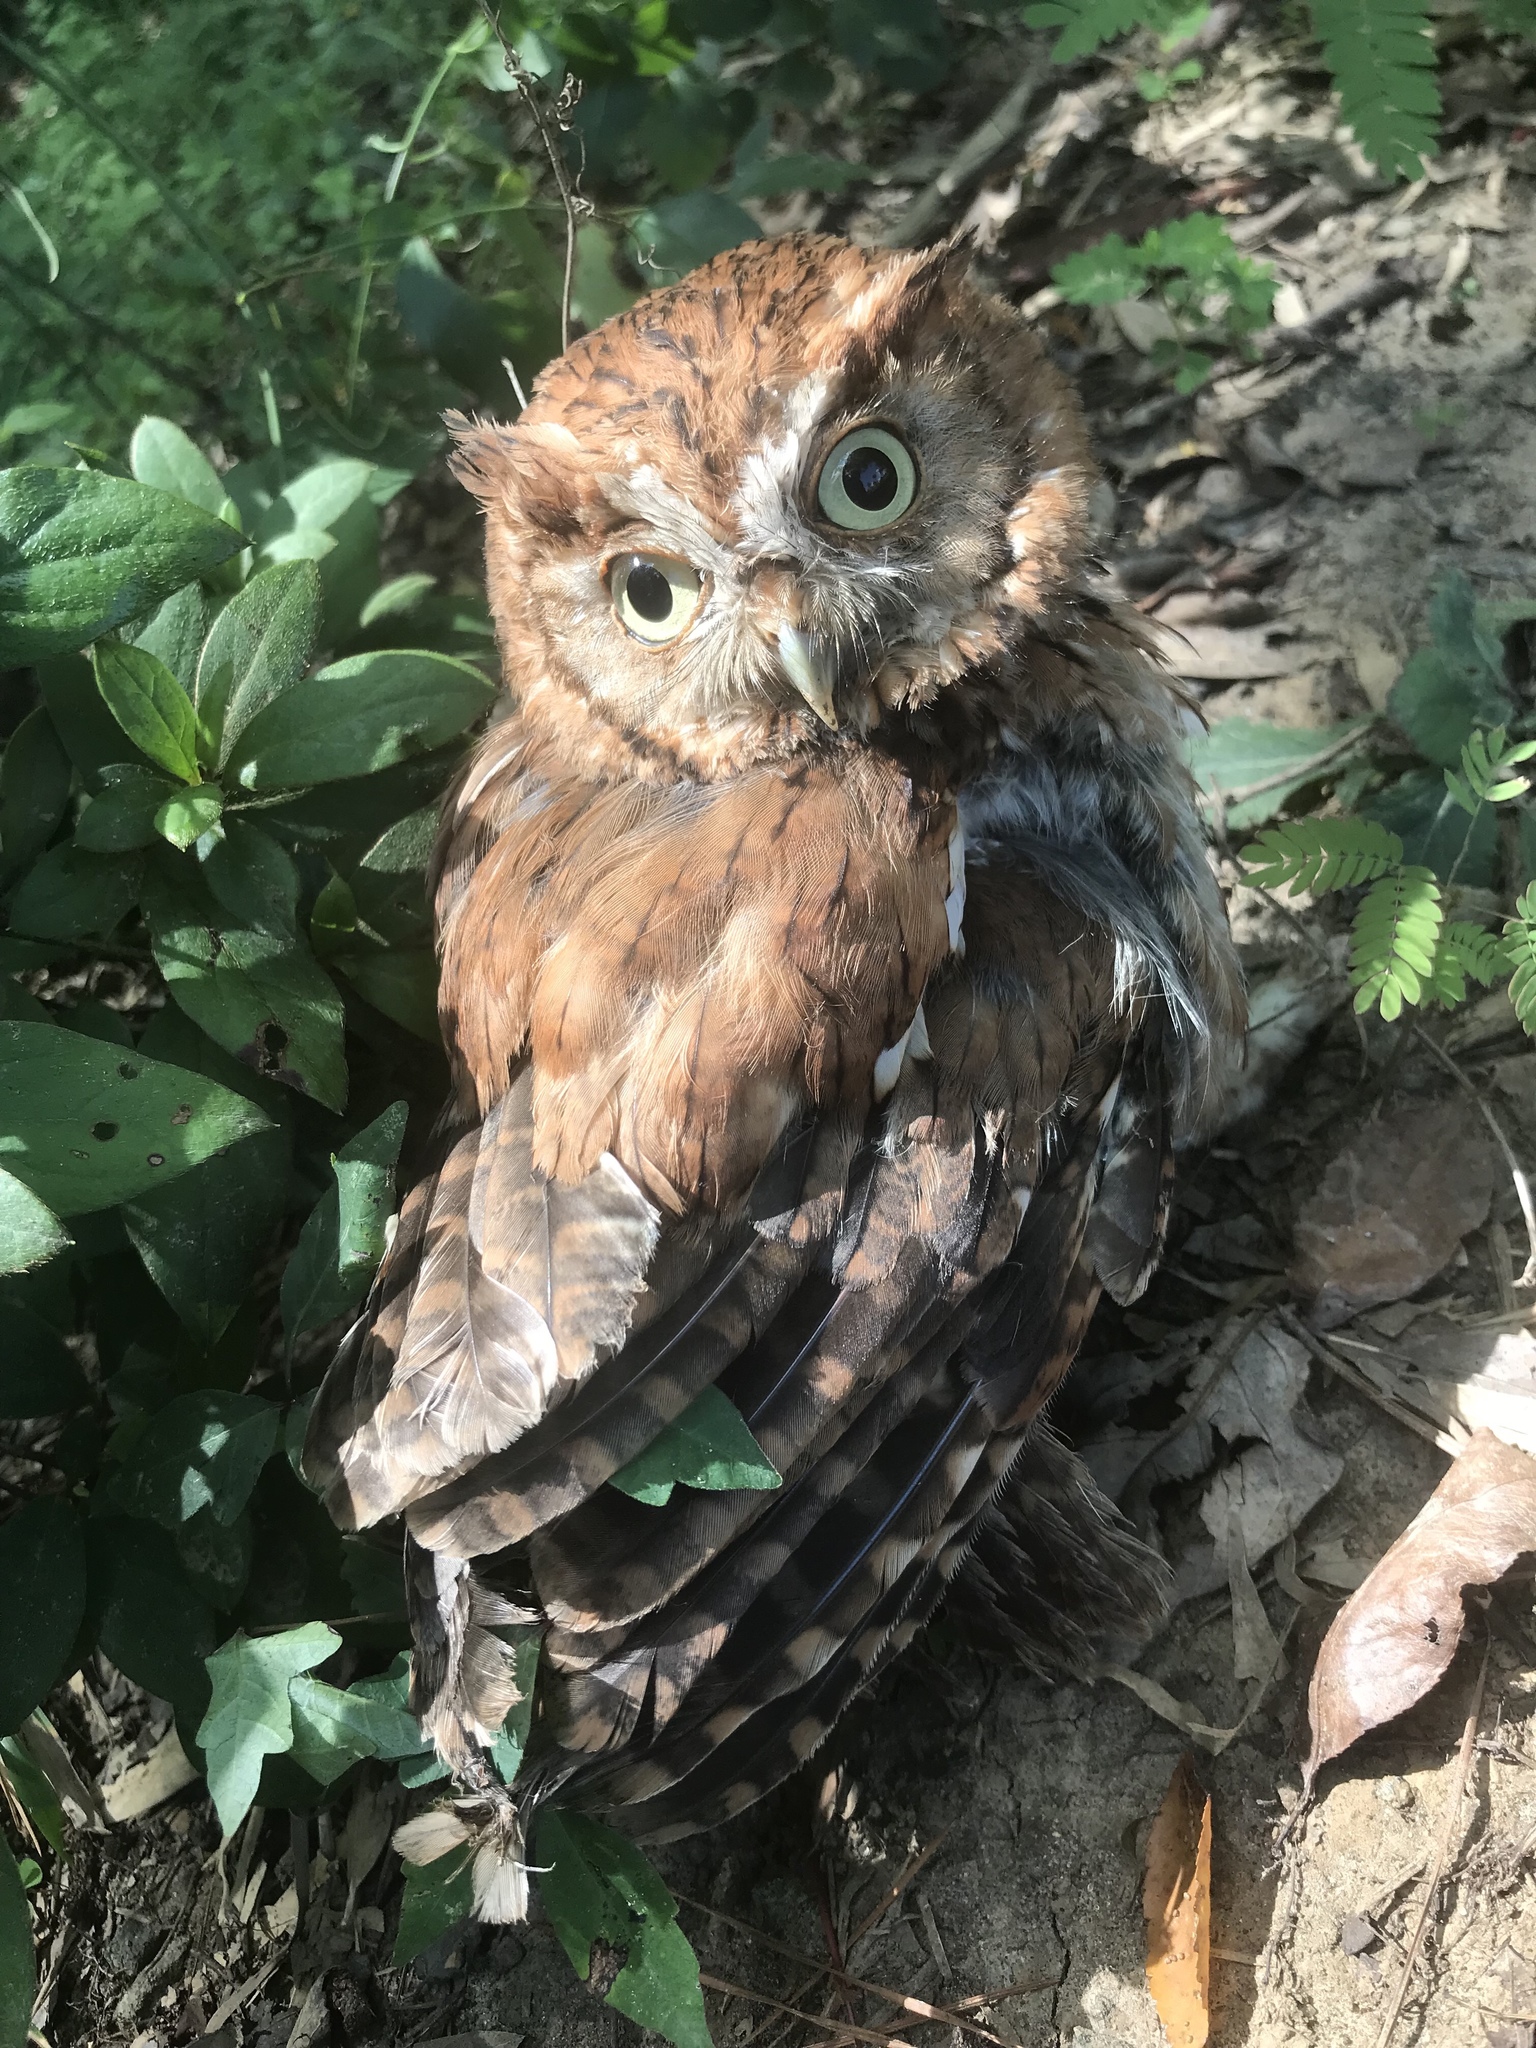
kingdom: Animalia
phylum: Chordata
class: Aves
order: Strigiformes
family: Strigidae
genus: Megascops
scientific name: Megascops asio
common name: Eastern screech-owl
